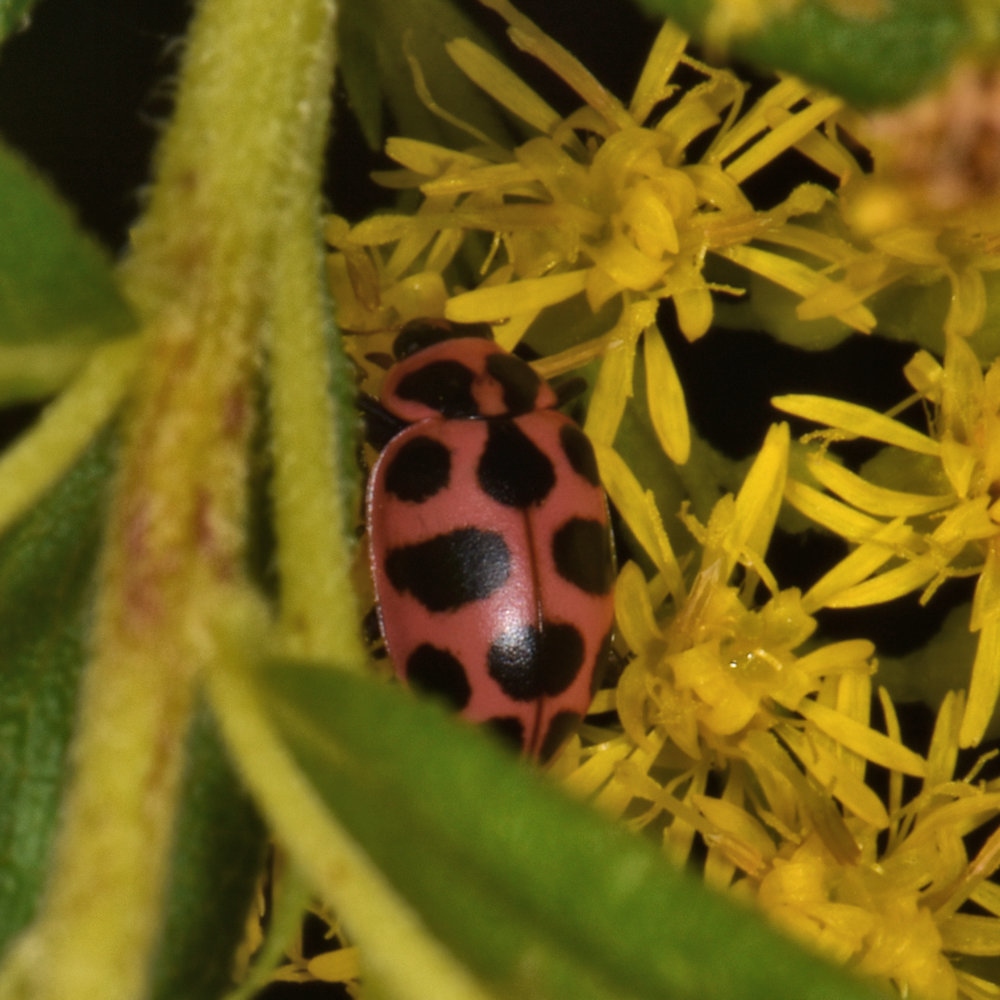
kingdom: Animalia
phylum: Arthropoda
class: Insecta
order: Coleoptera
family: Coccinellidae
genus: Coleomegilla
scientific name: Coleomegilla maculata
